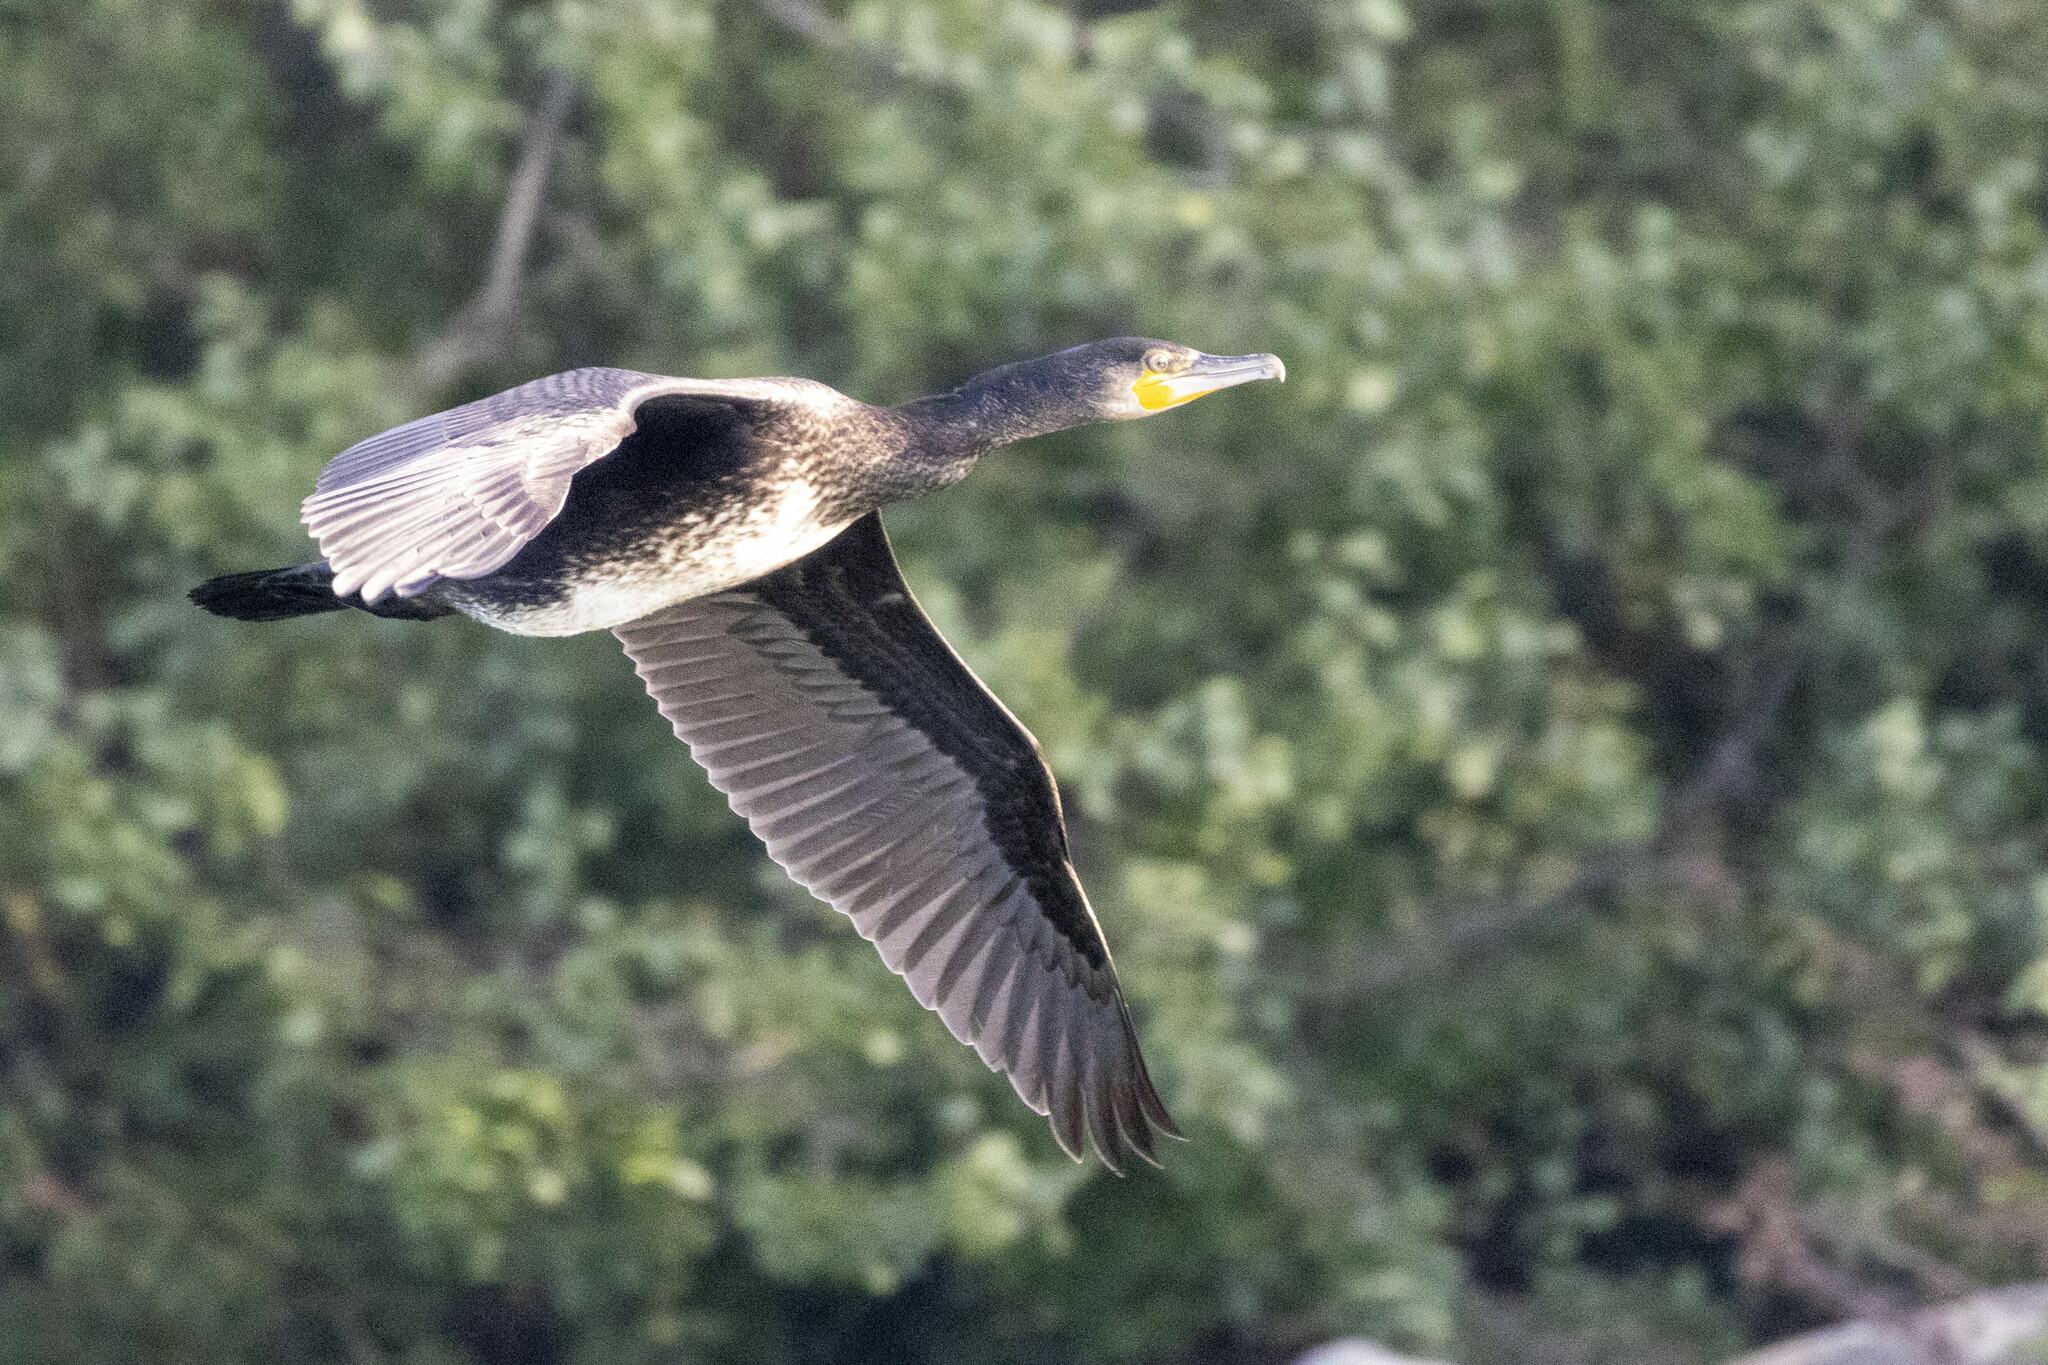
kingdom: Animalia
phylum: Chordata
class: Aves
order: Suliformes
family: Phalacrocoracidae
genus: Phalacrocorax
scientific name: Phalacrocorax carbo
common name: Great cormorant
